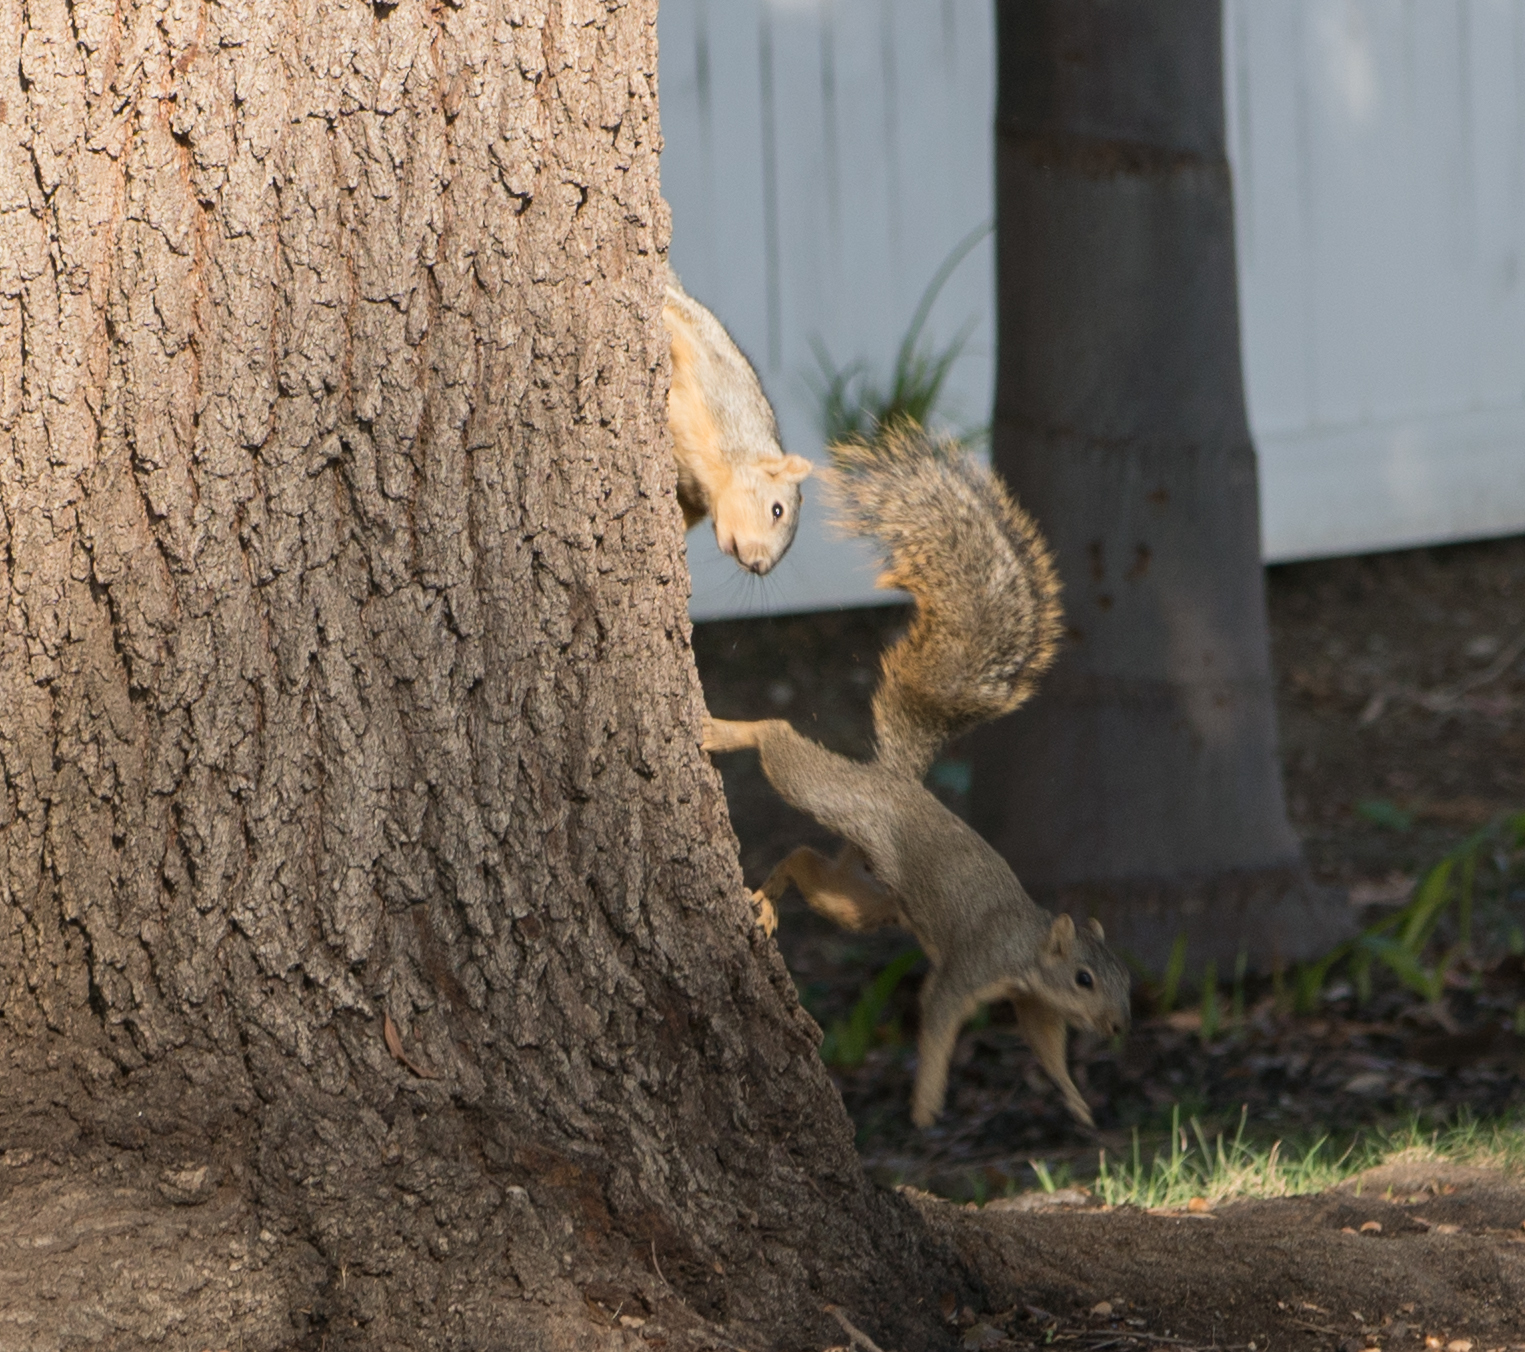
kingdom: Animalia
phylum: Chordata
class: Mammalia
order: Rodentia
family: Sciuridae
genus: Sciurus
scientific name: Sciurus niger
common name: Fox squirrel
